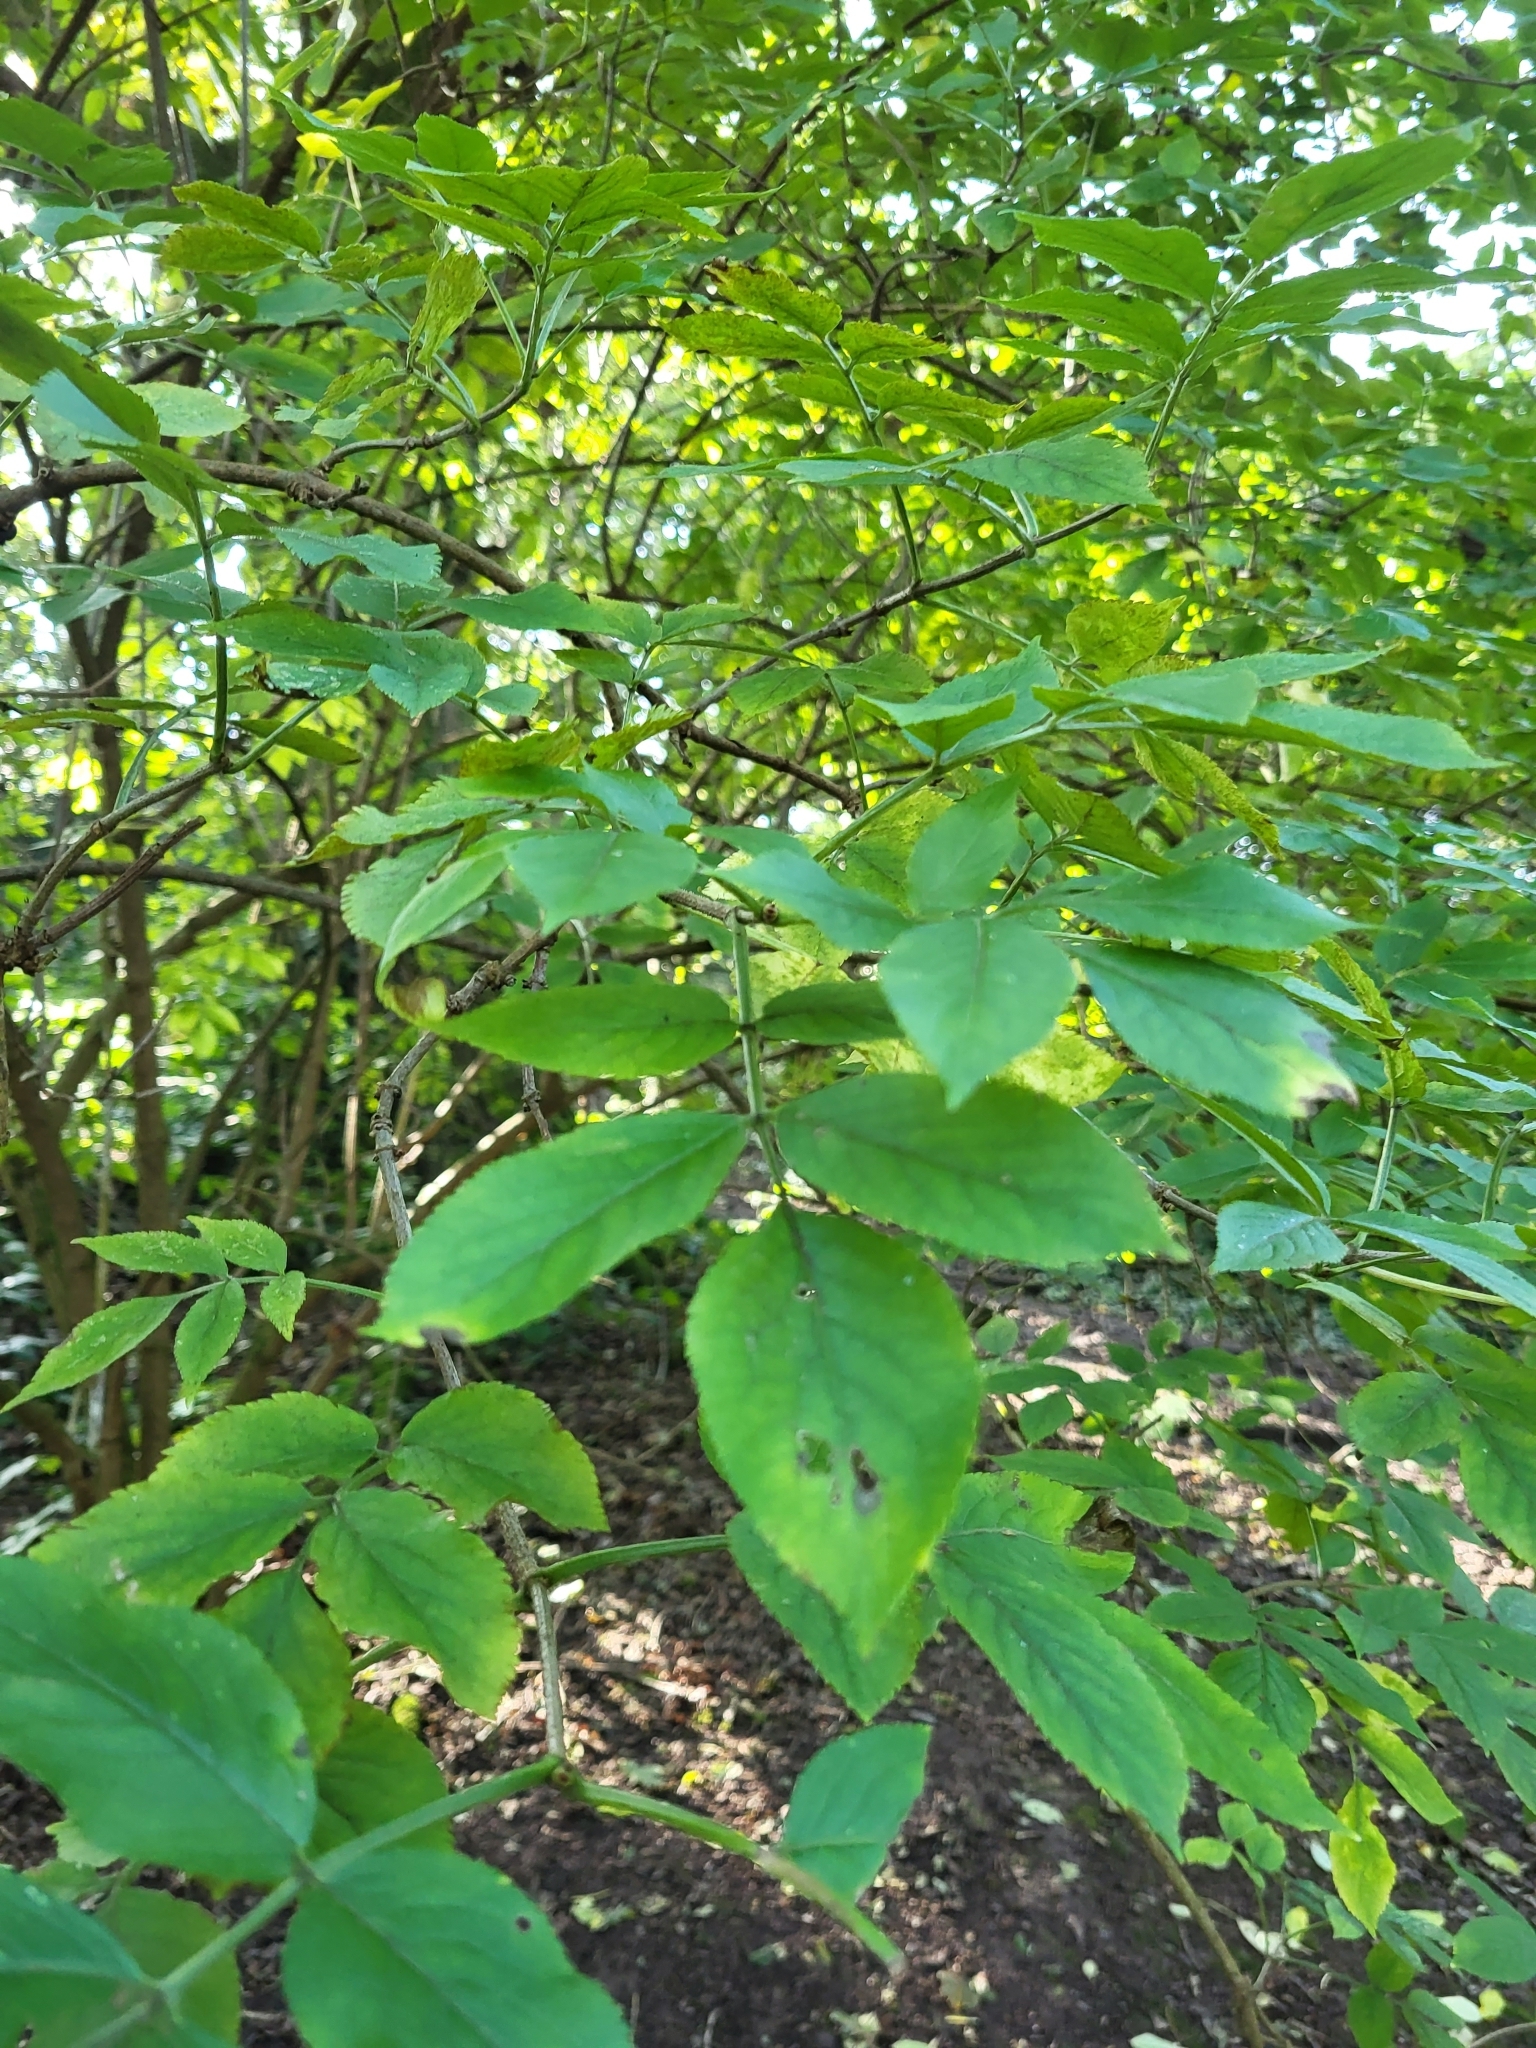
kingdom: Plantae
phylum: Tracheophyta
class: Magnoliopsida
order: Dipsacales
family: Viburnaceae
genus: Sambucus
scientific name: Sambucus nigra
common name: Elder
